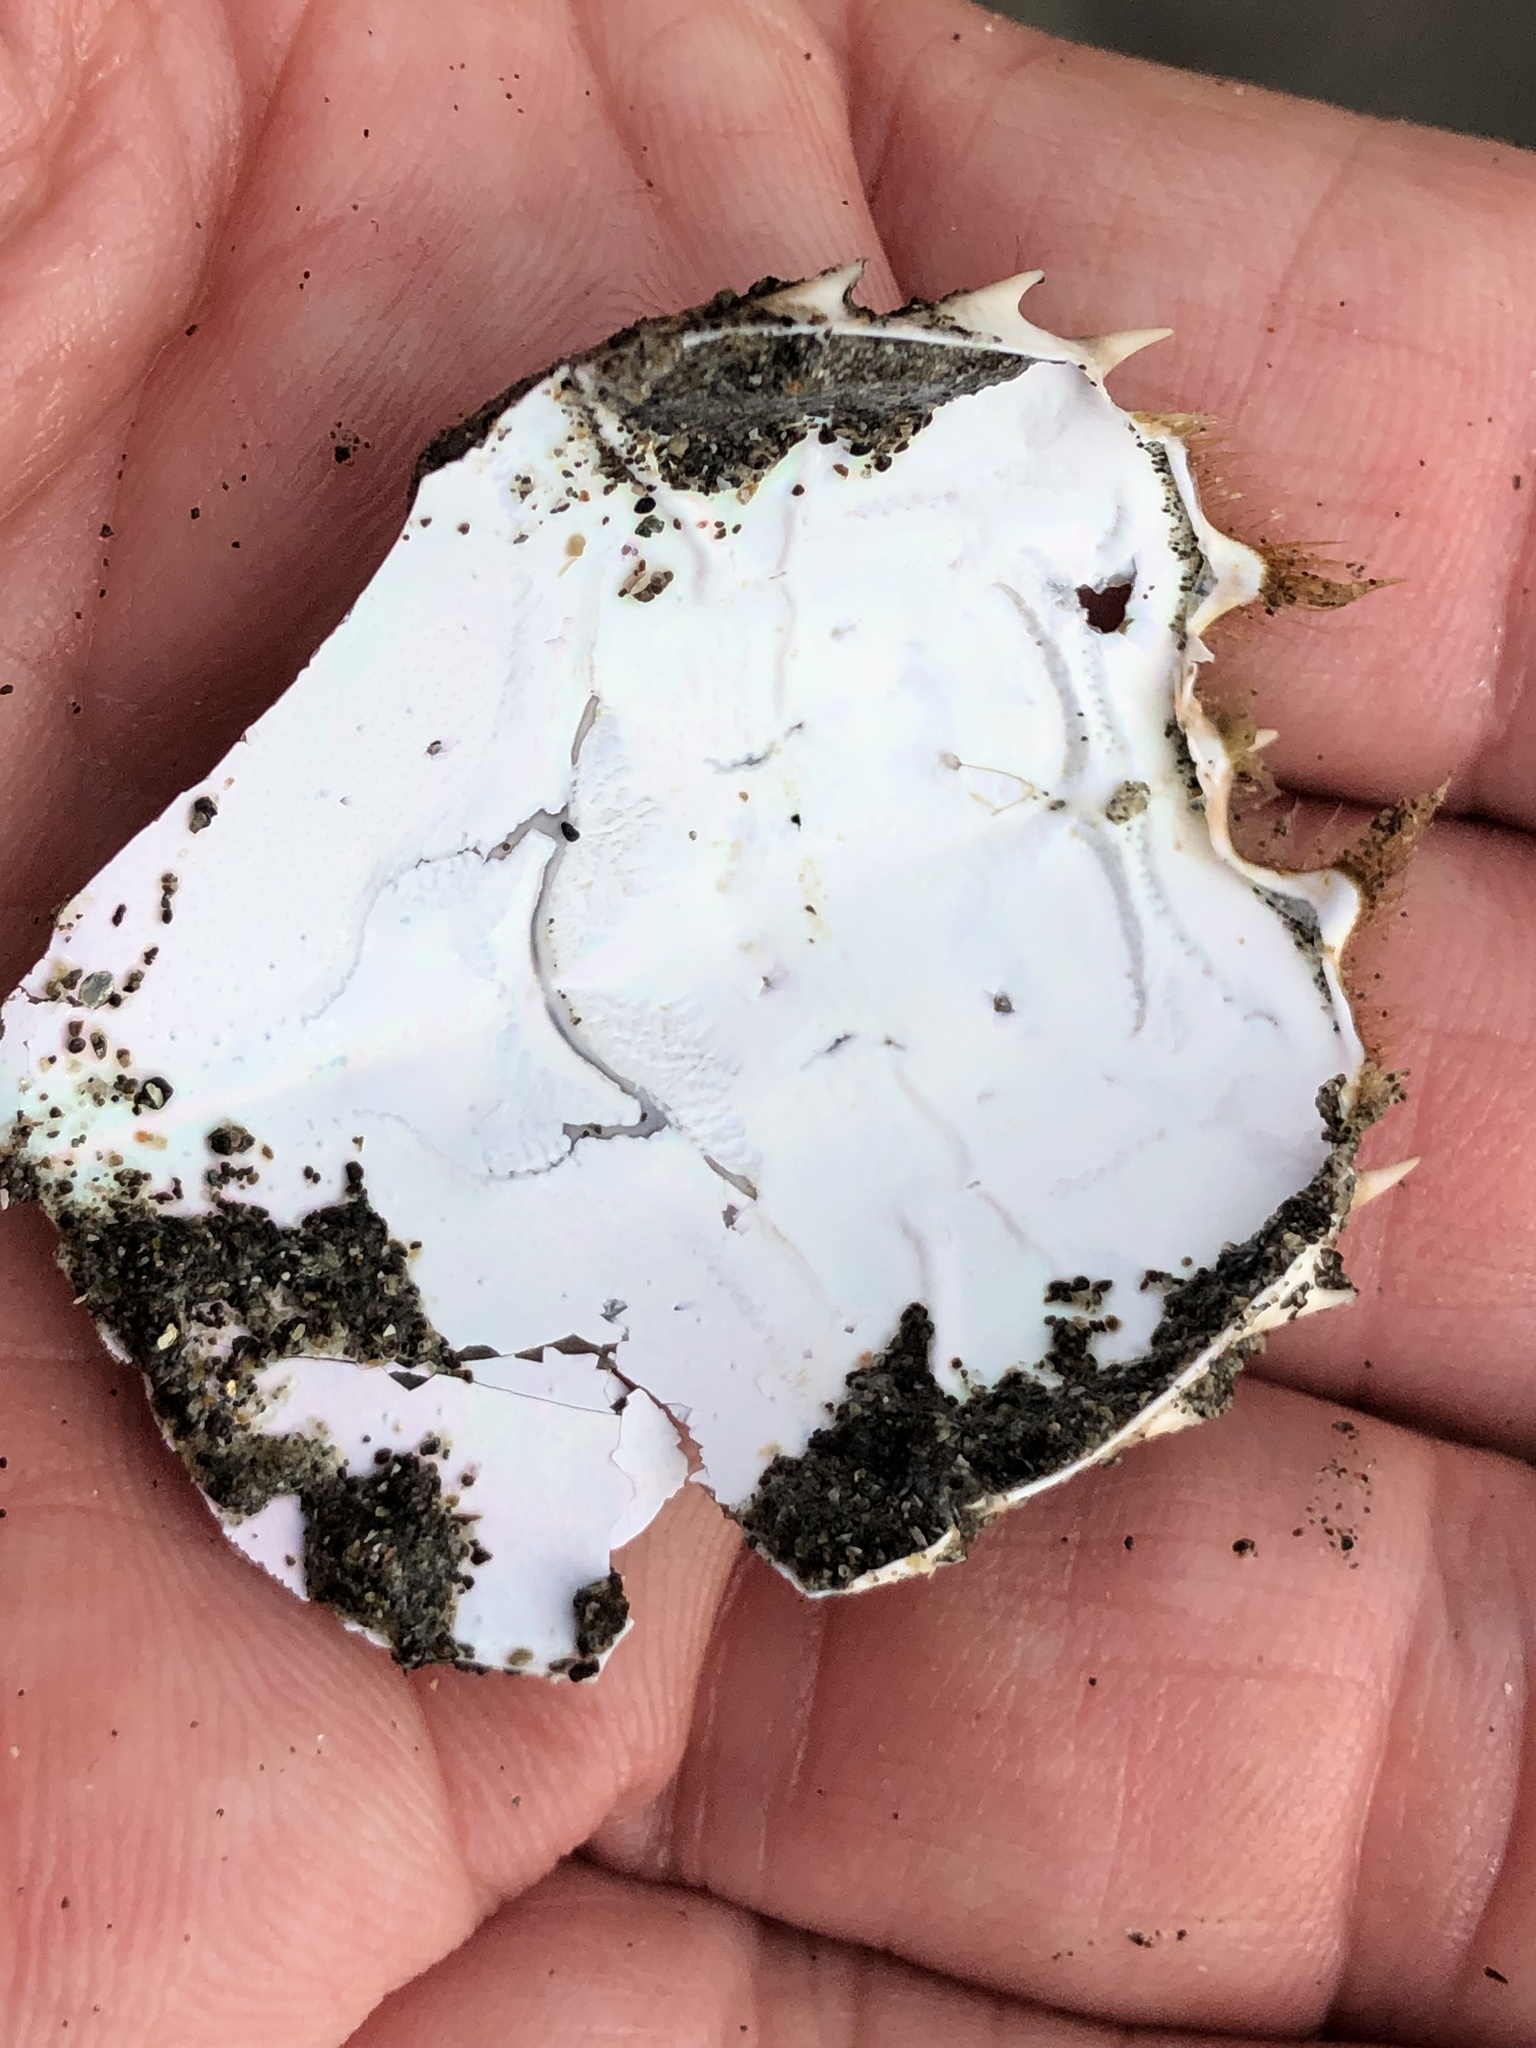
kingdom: Animalia
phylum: Arthropoda
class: Malacostraca
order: Decapoda
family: Blepharipodidae
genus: Blepharipoda
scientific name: Blepharipoda occidentalis
